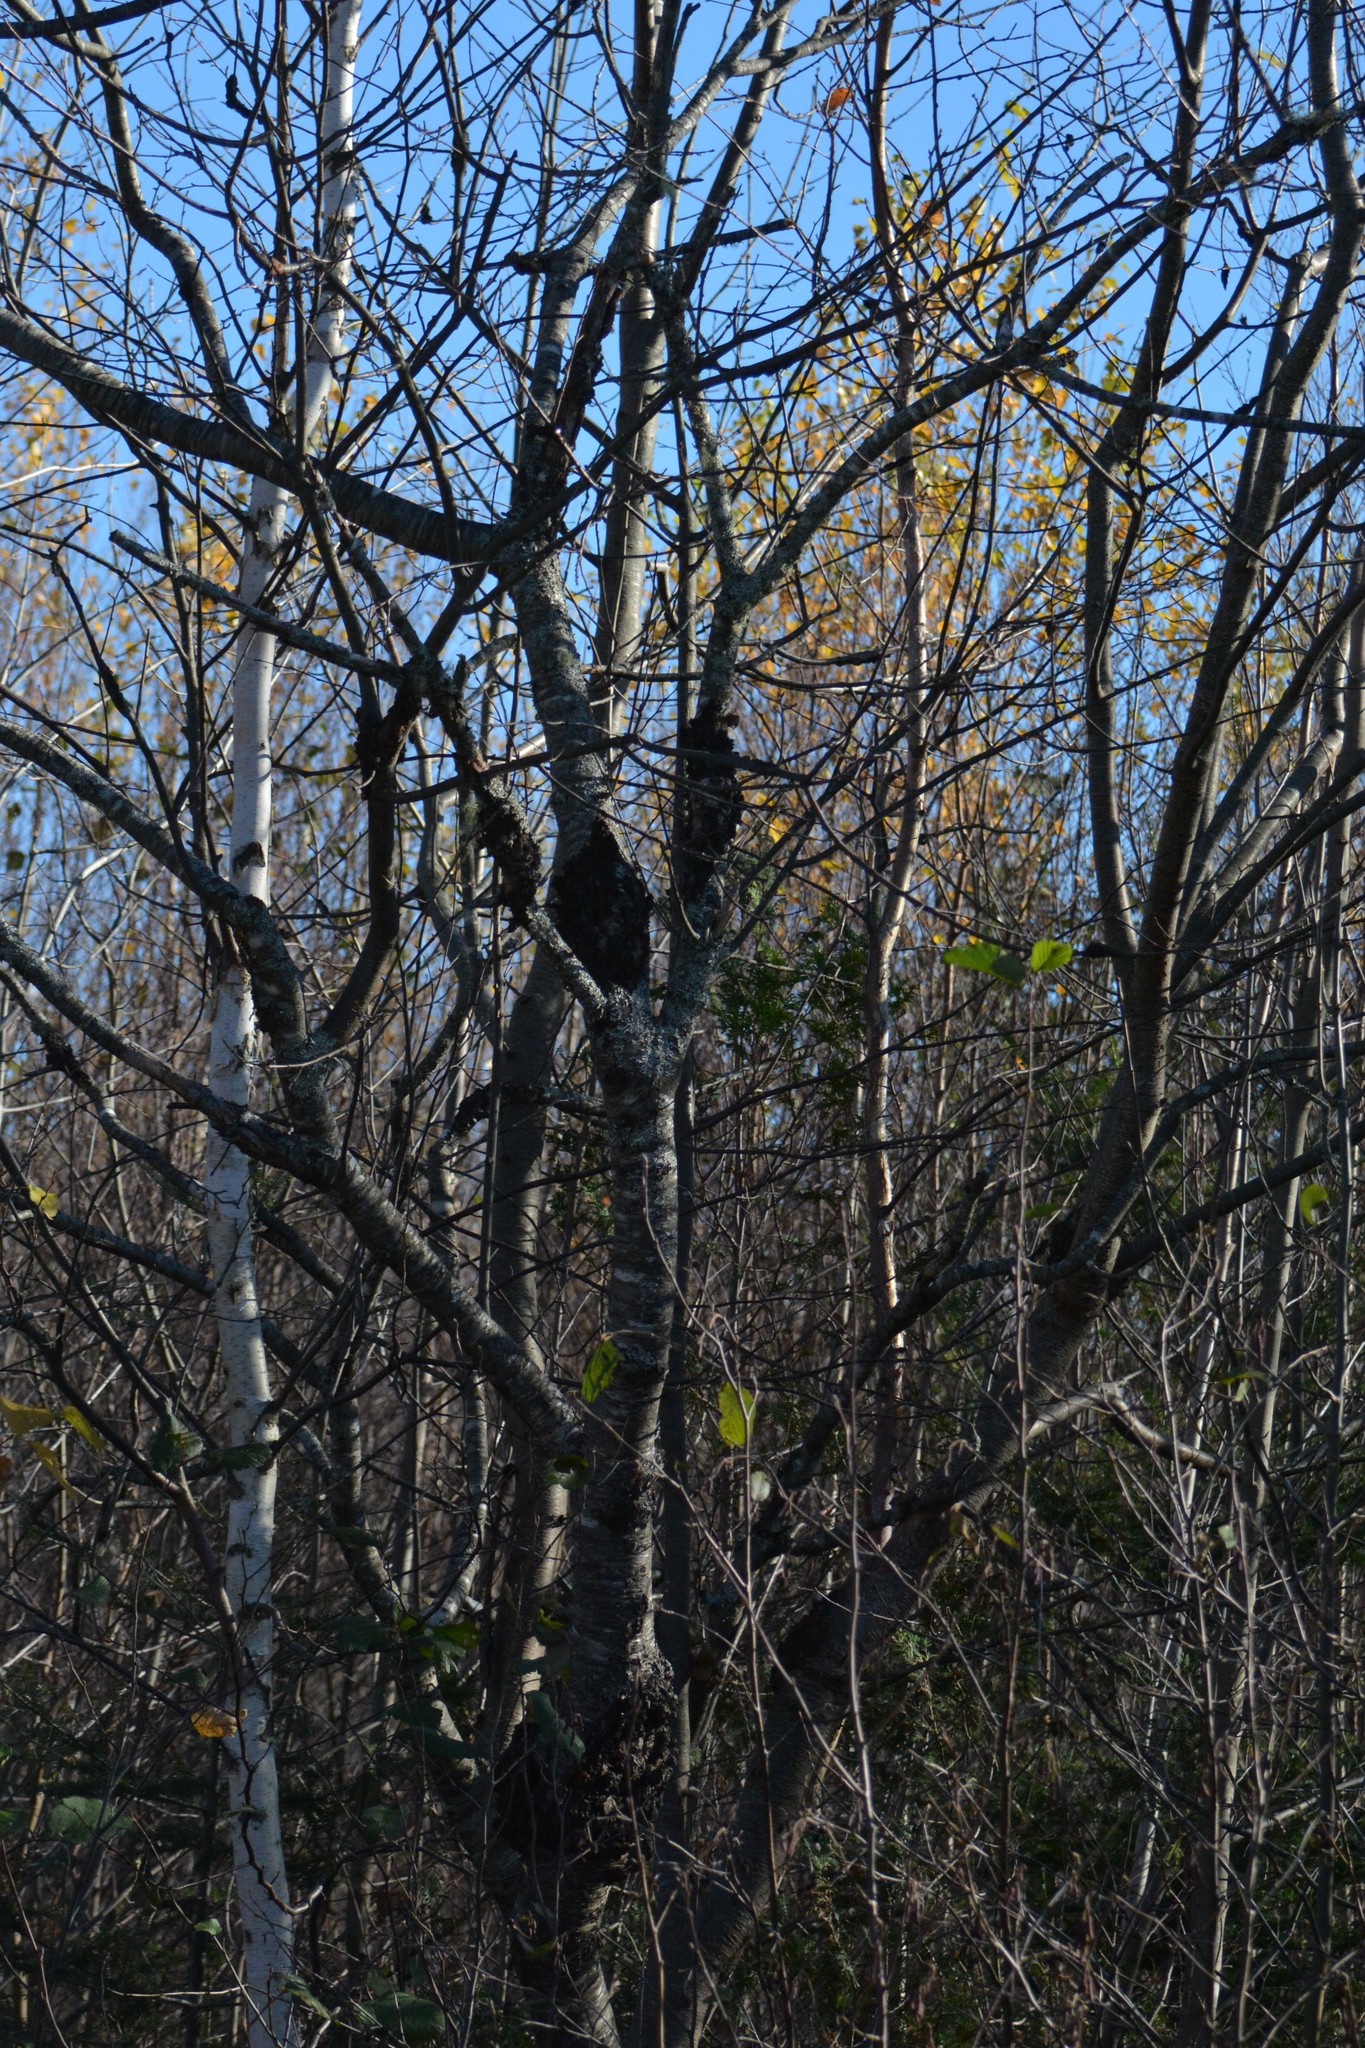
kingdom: Fungi
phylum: Ascomycota
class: Dothideomycetes
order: Venturiales
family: Venturiaceae
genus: Apiosporina
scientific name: Apiosporina morbosa
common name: Black knot
